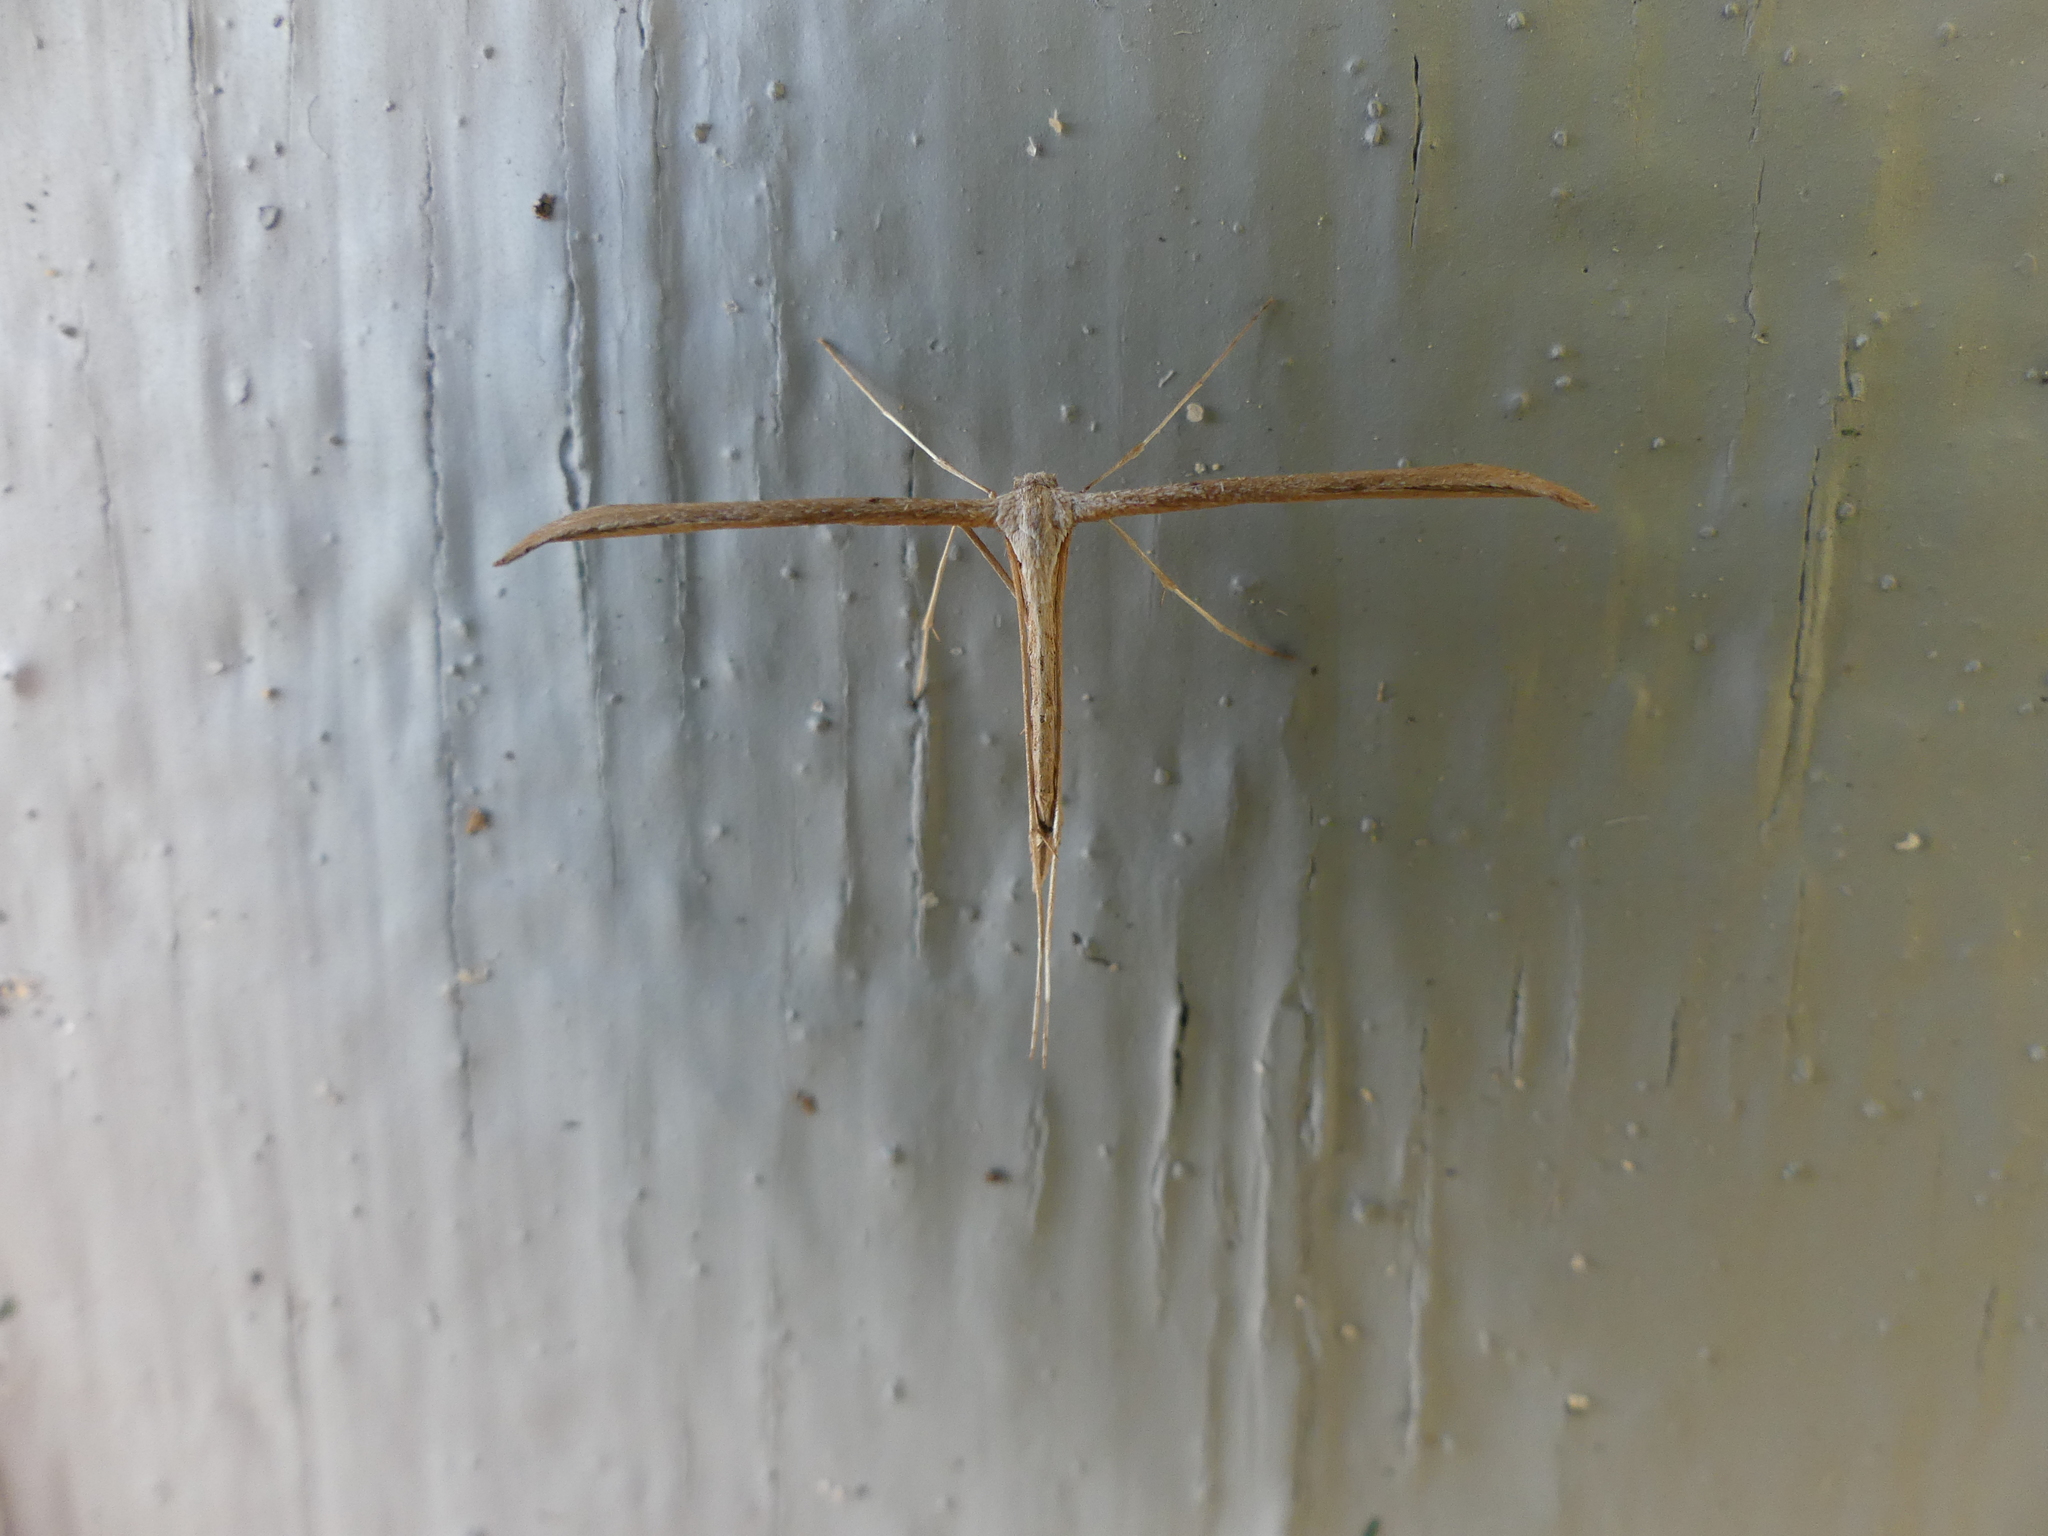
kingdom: Animalia
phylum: Arthropoda
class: Insecta
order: Lepidoptera
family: Pterophoridae
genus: Emmelina
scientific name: Emmelina monodactyla
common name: Common plume
